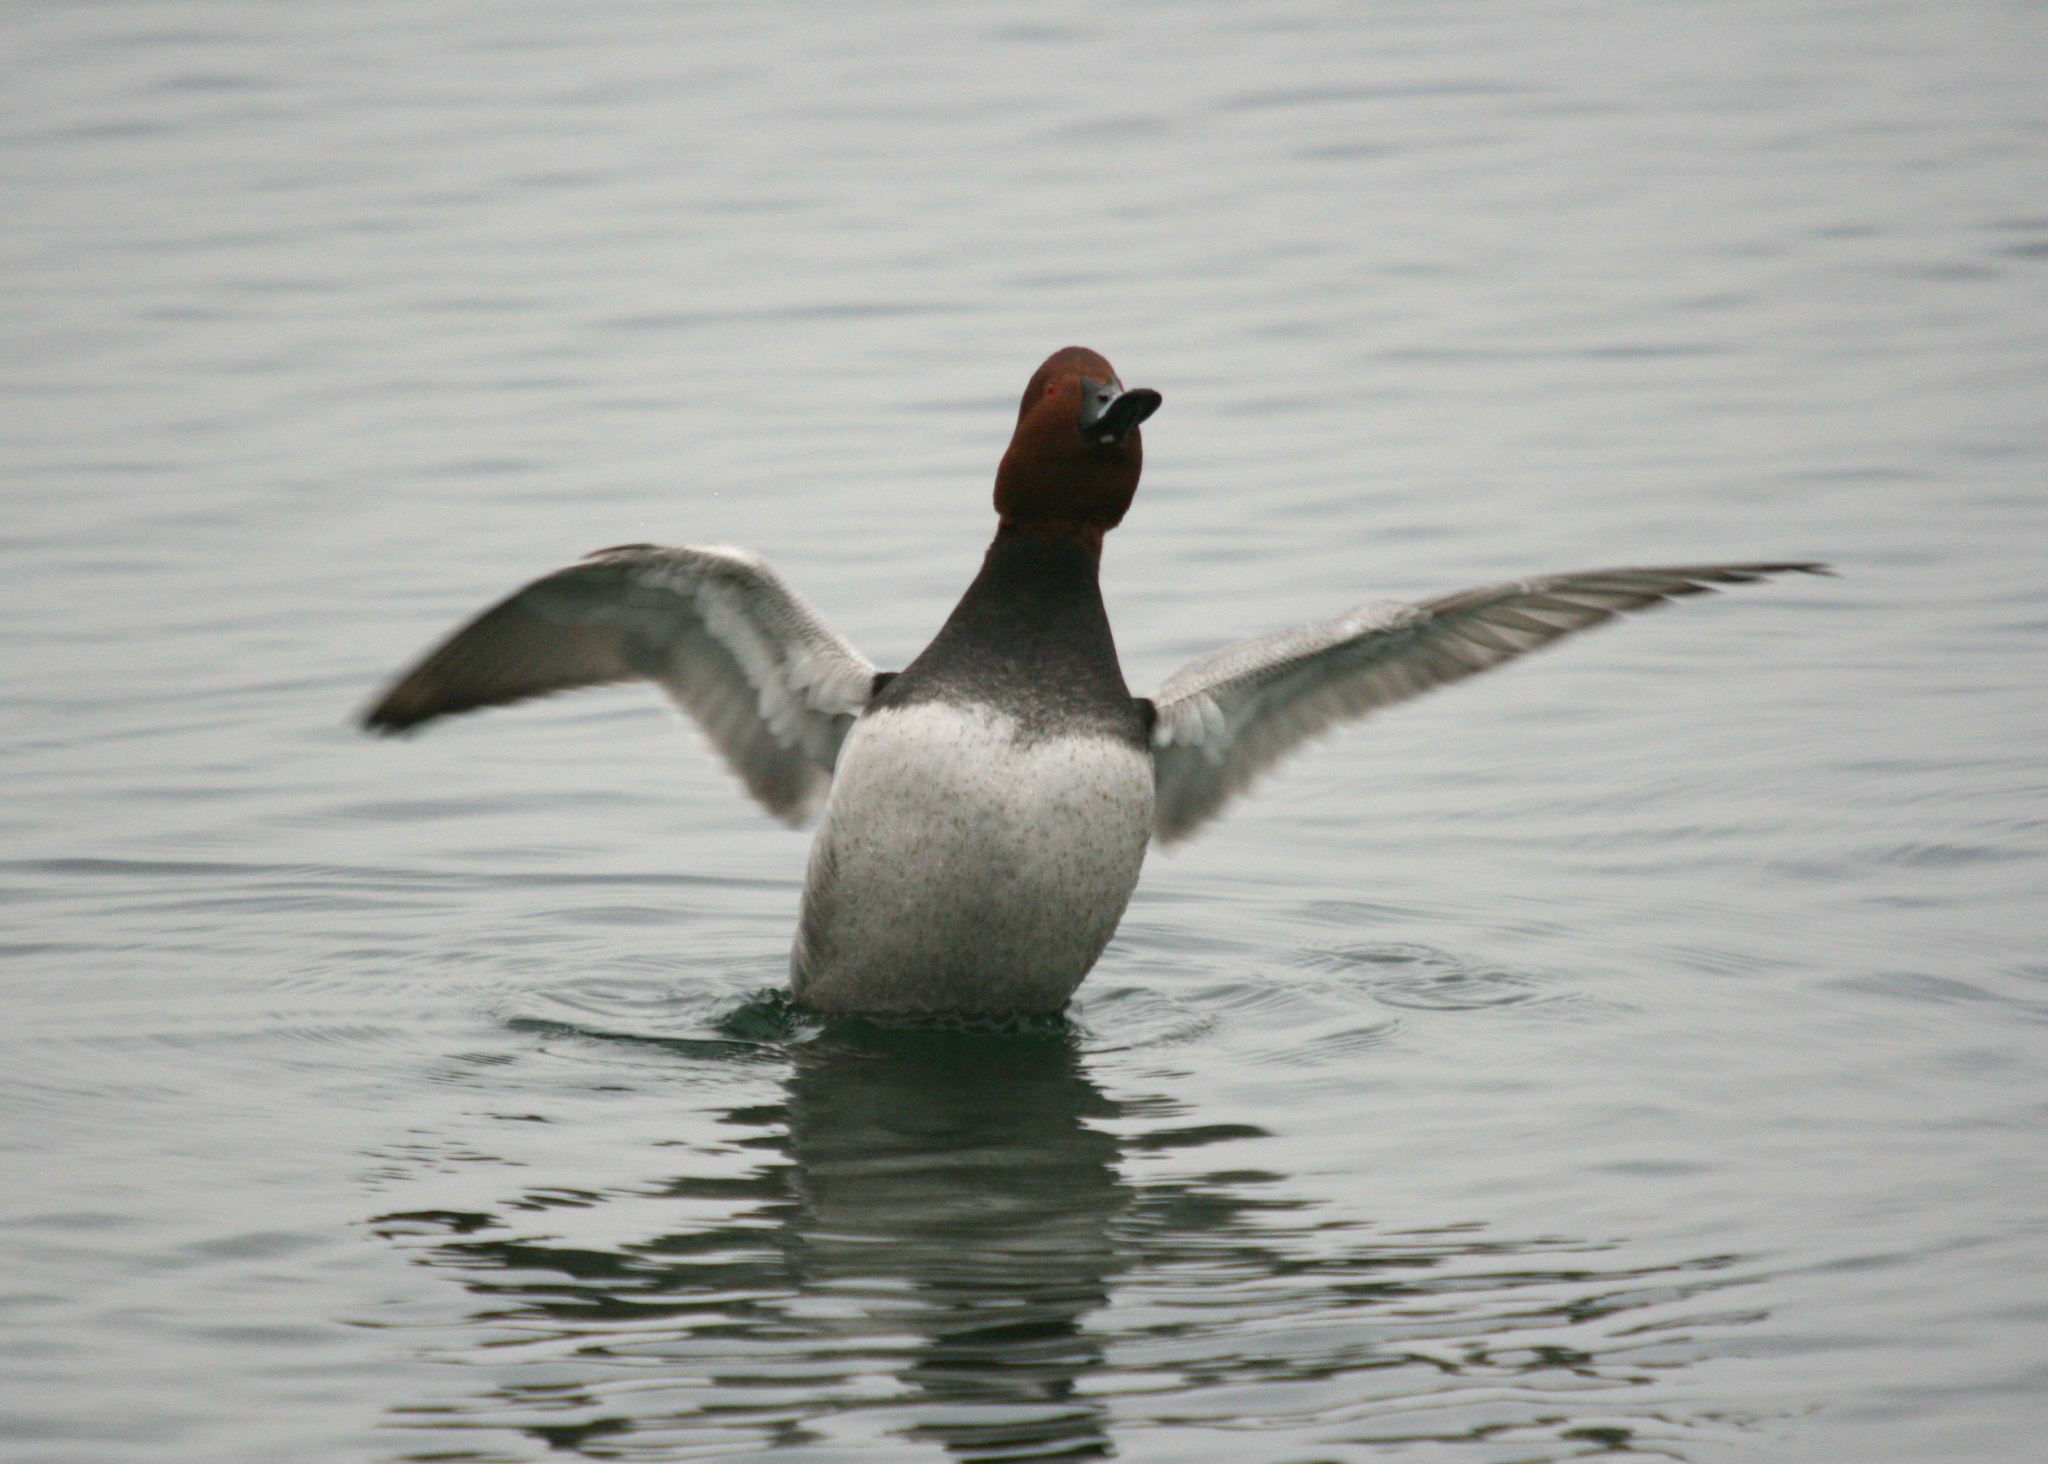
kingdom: Animalia
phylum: Chordata
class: Aves
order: Anseriformes
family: Anatidae
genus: Aythya
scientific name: Aythya ferina
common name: Common pochard
